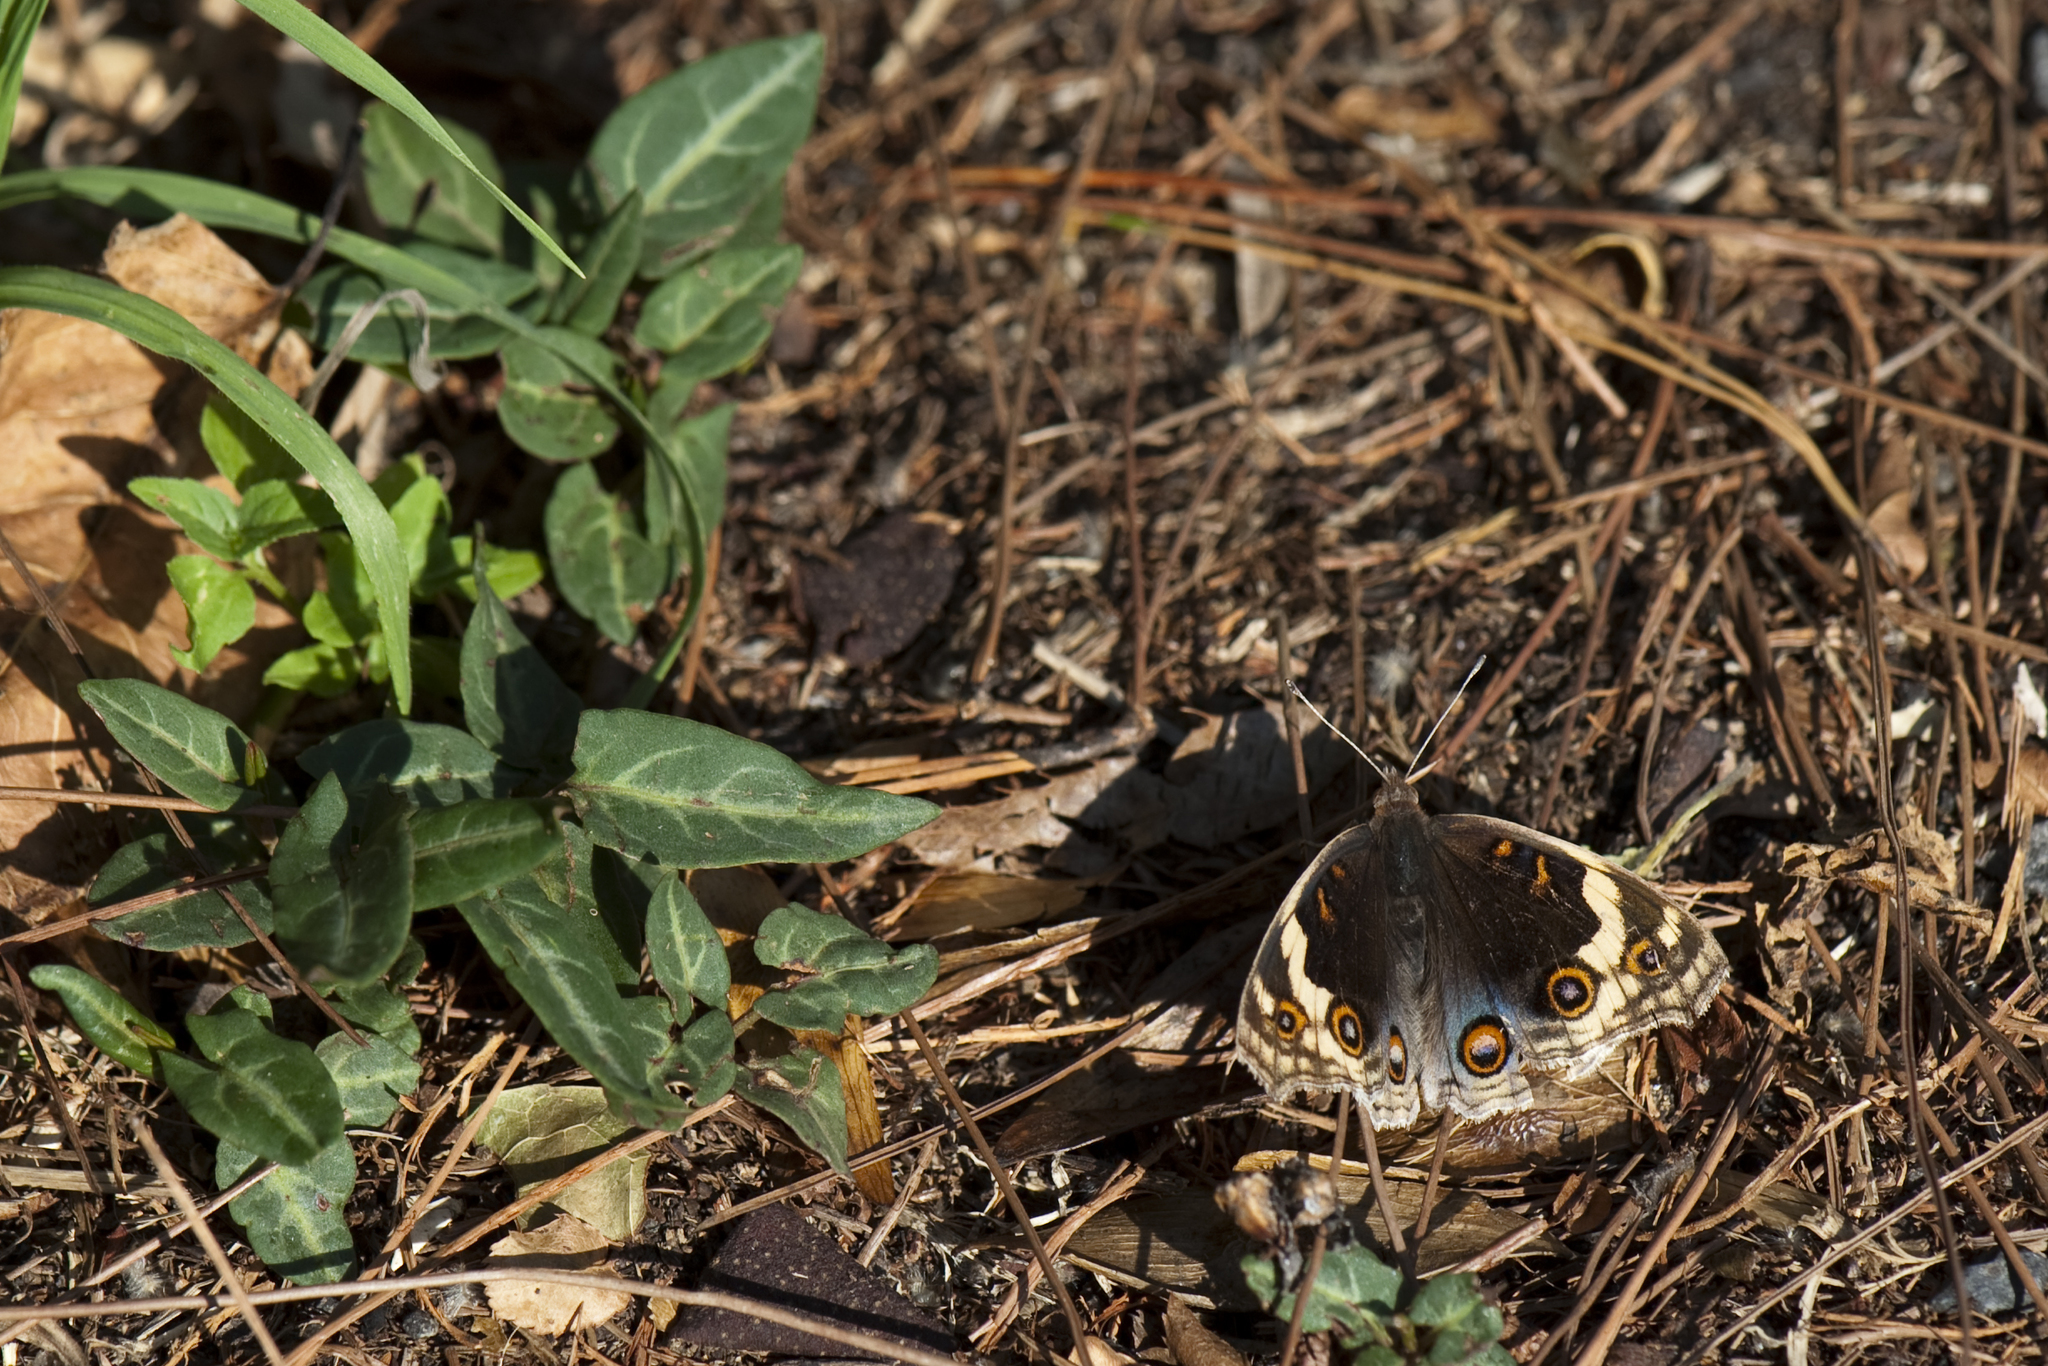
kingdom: Animalia
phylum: Arthropoda
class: Insecta
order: Lepidoptera
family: Nymphalidae
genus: Junonia
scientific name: Junonia orithya
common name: Blue pansy
